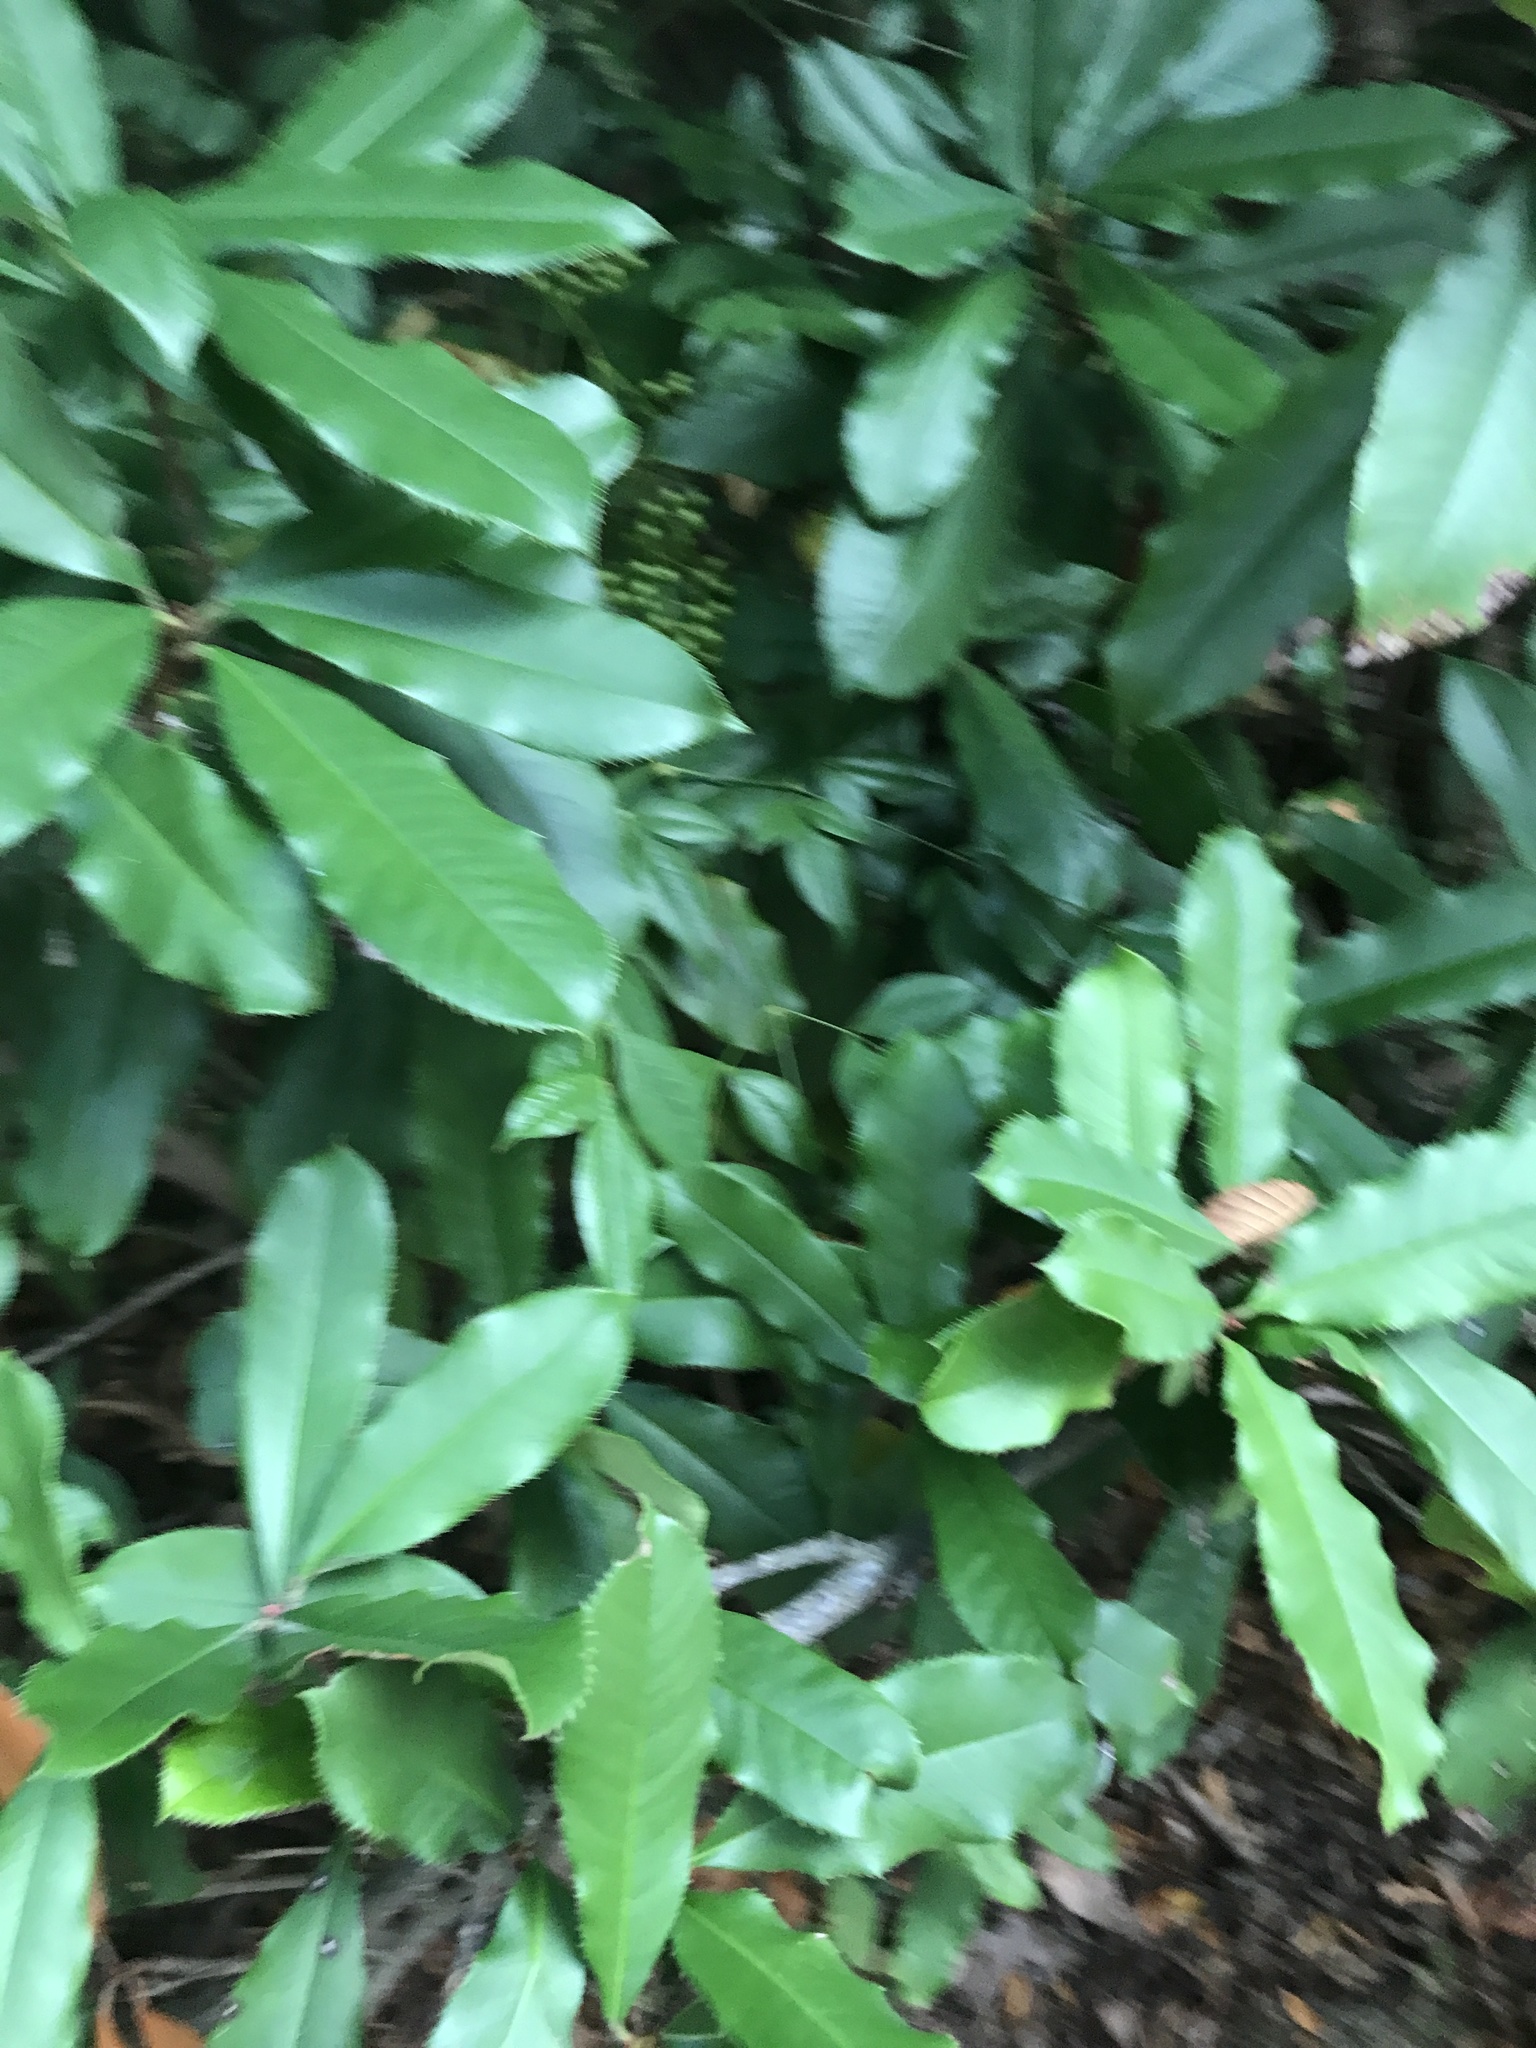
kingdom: Plantae
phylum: Tracheophyta
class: Magnoliopsida
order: Rosales
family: Rosaceae
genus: Photinia
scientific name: Photinia serratifolia
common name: Taiwanese photinia
